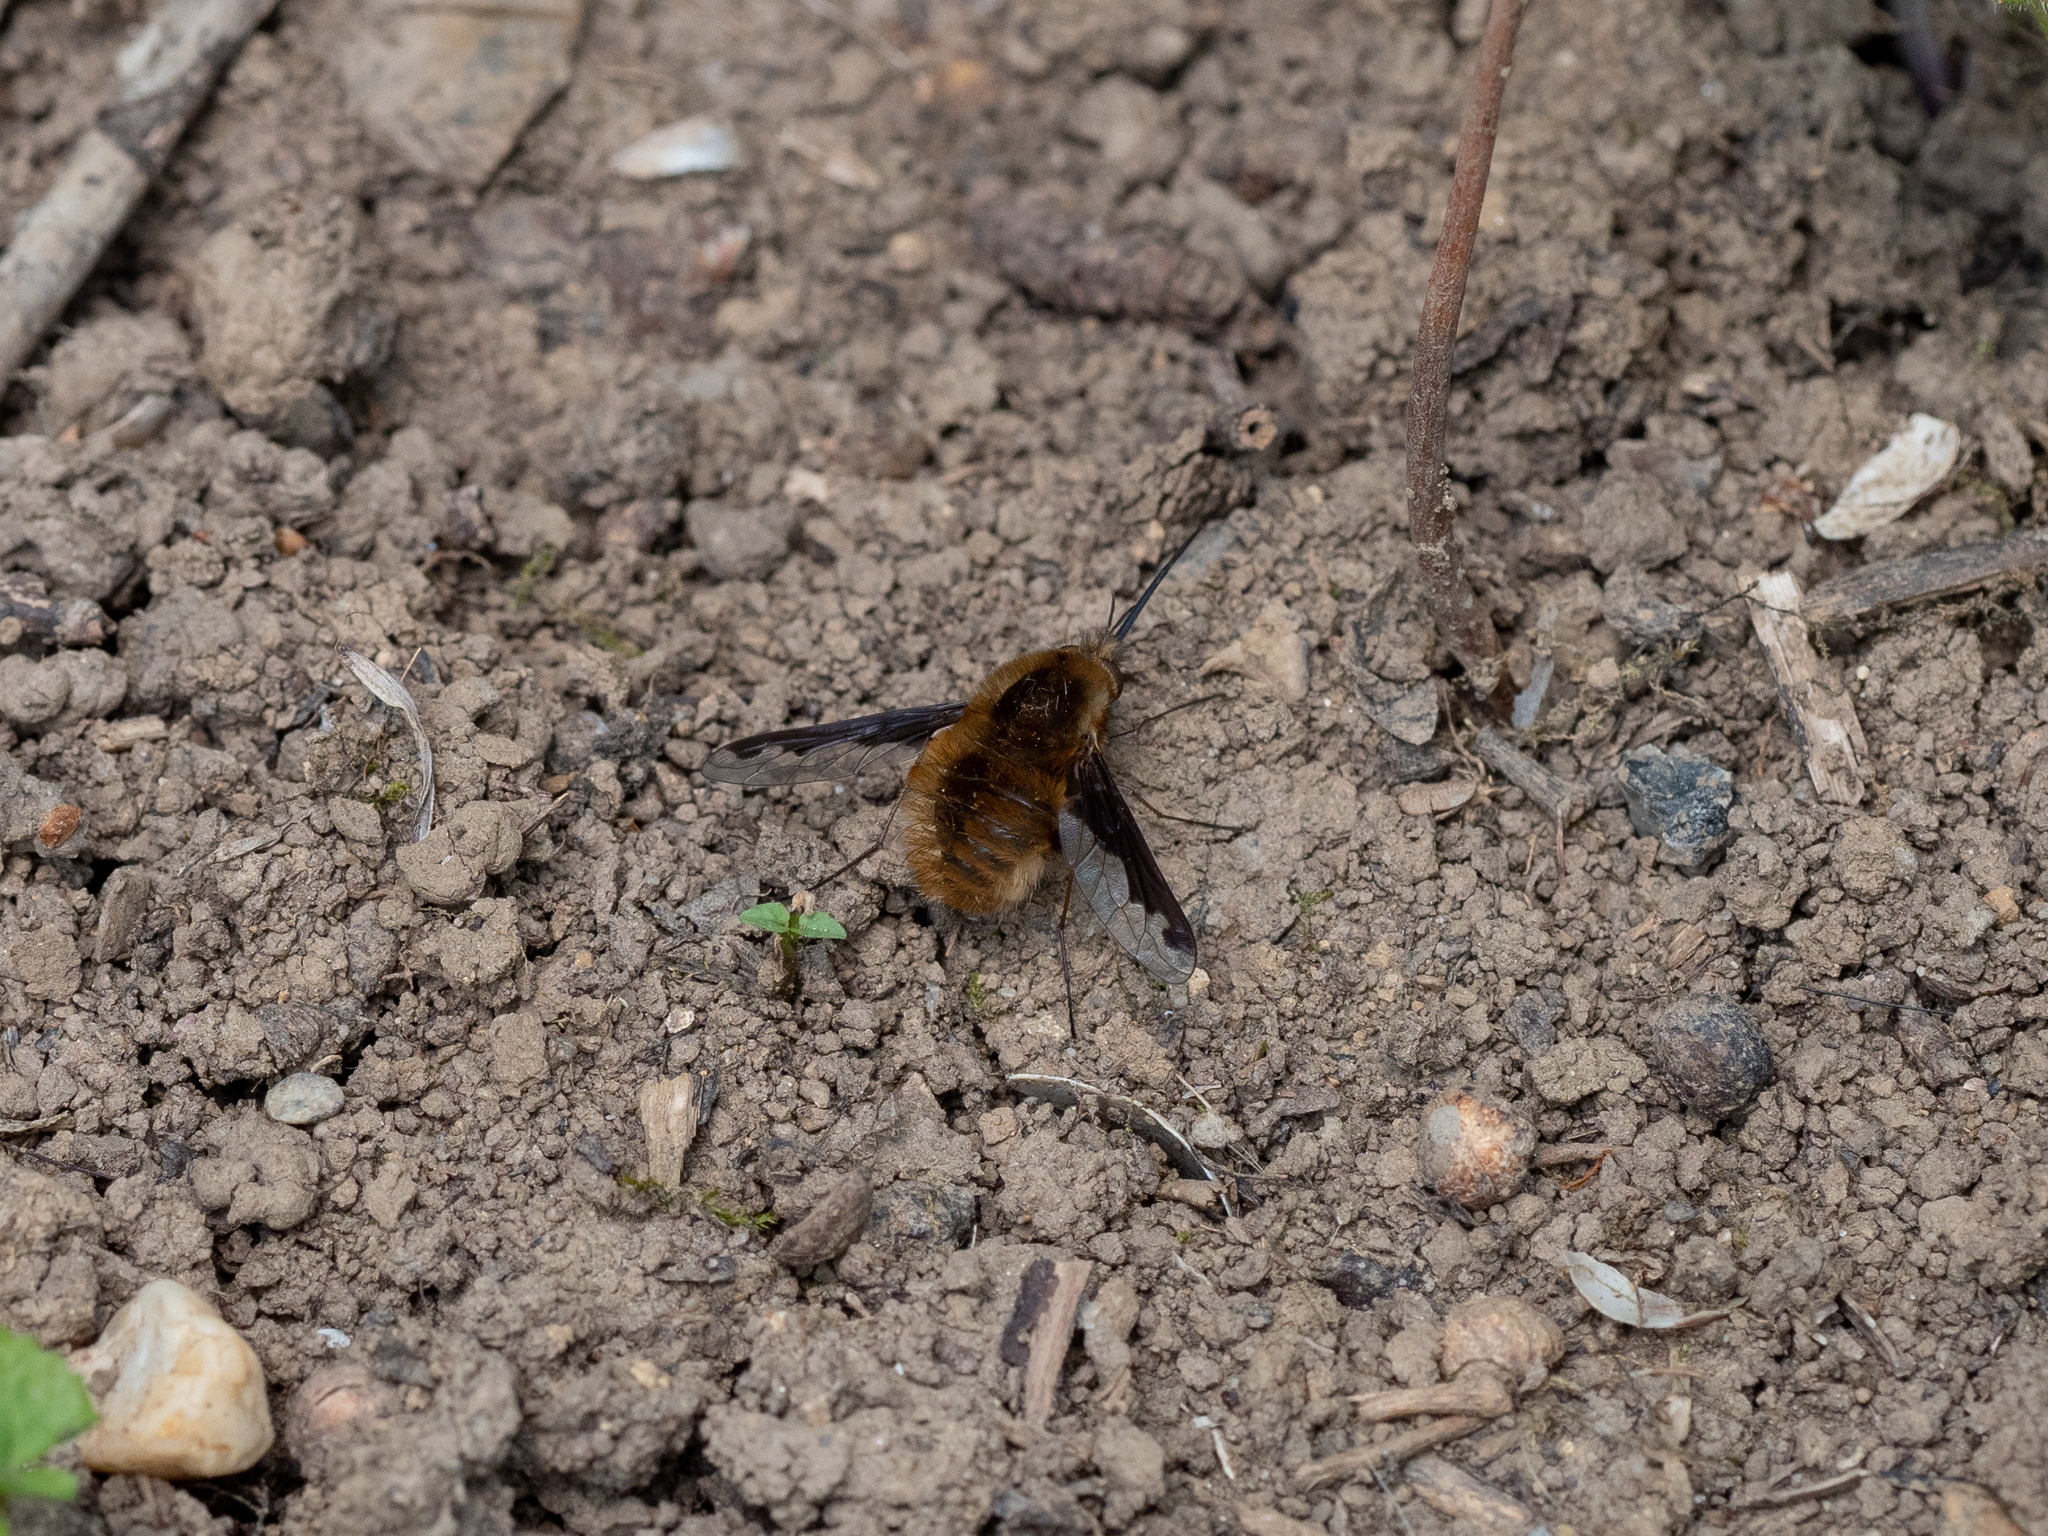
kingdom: Animalia
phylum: Arthropoda
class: Insecta
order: Diptera
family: Bombyliidae
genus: Bombylius
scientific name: Bombylius major
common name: Bee fly
